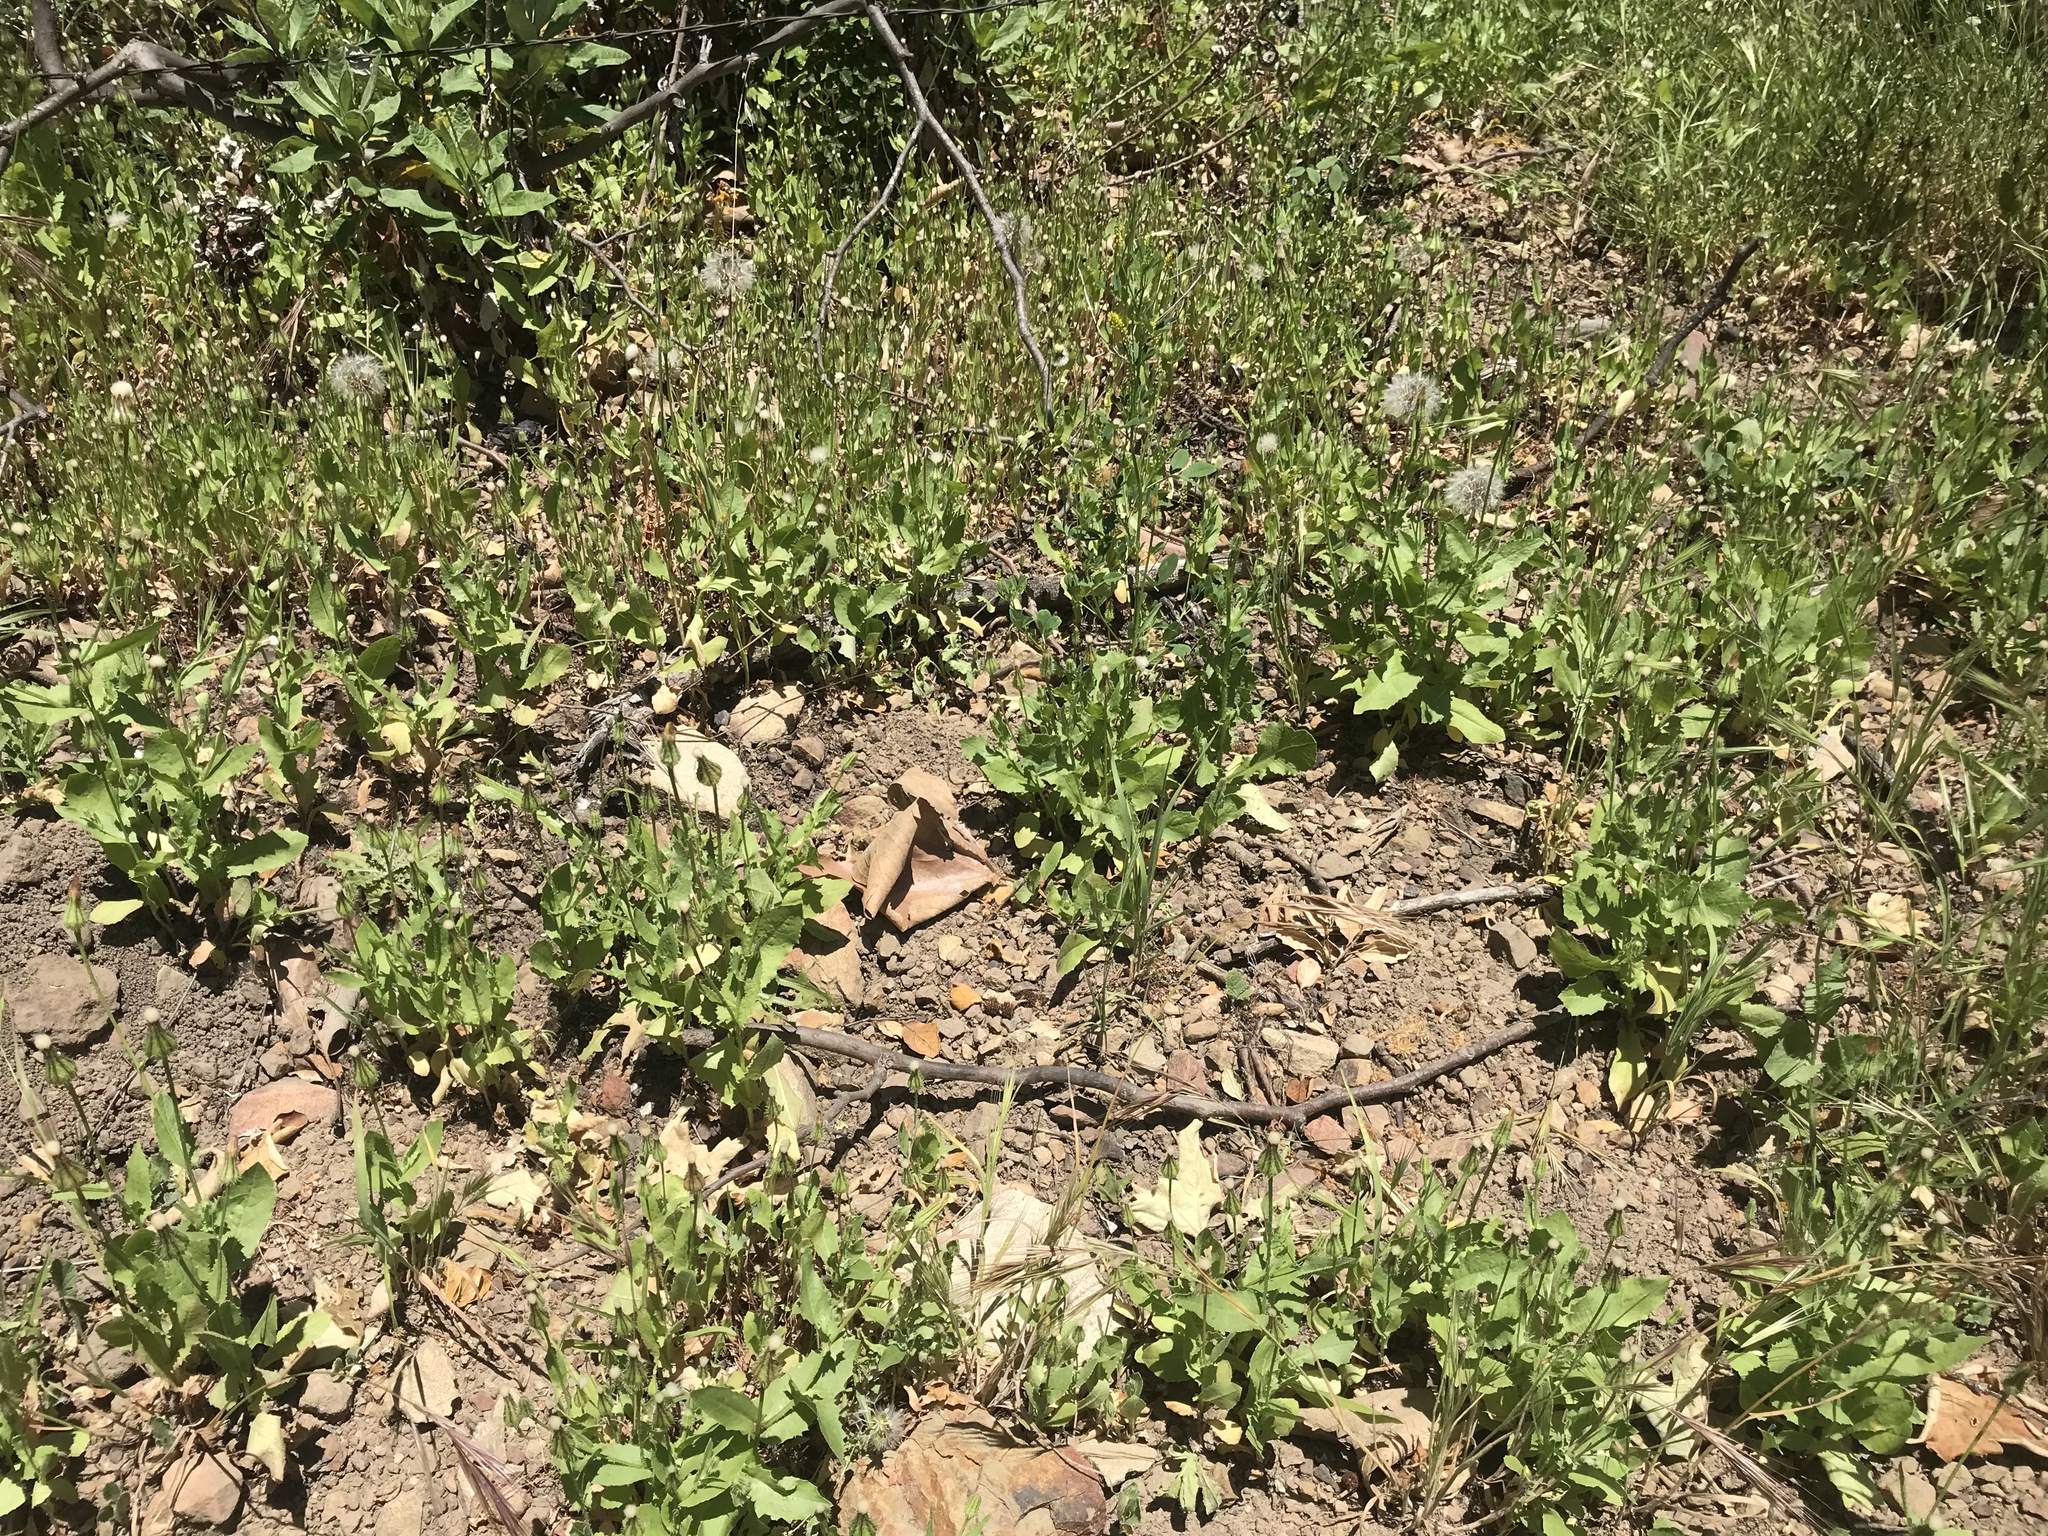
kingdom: Plantae
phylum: Tracheophyta
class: Magnoliopsida
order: Asterales
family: Asteraceae
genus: Urospermum
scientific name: Urospermum picroides
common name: False hawkbit
